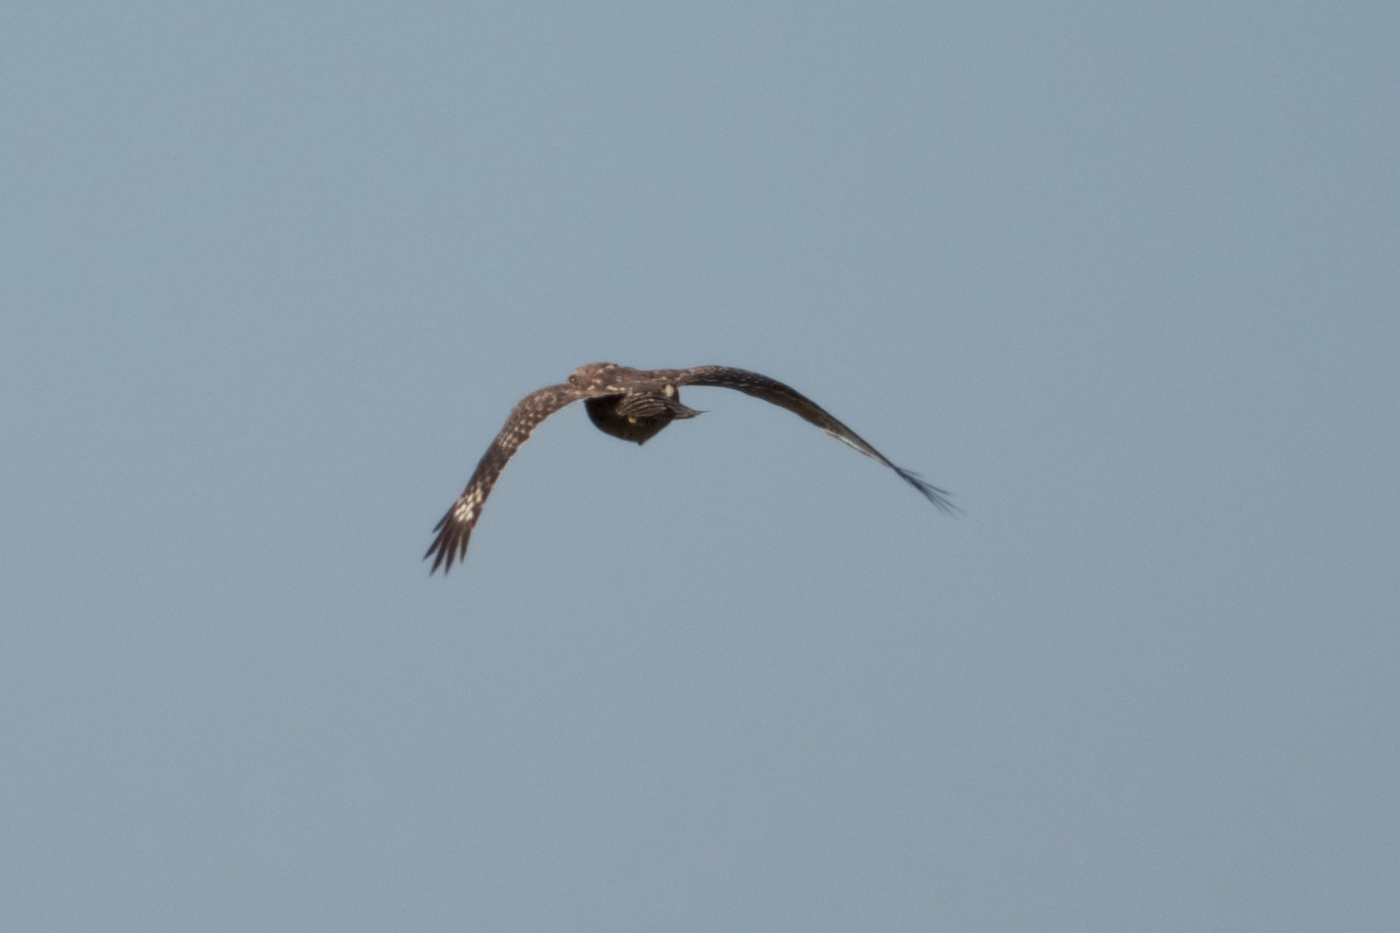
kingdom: Animalia
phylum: Chordata
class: Aves
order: Accipitriformes
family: Accipitridae
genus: Buteo
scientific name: Buteo lineatus
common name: Red-shouldered hawk
